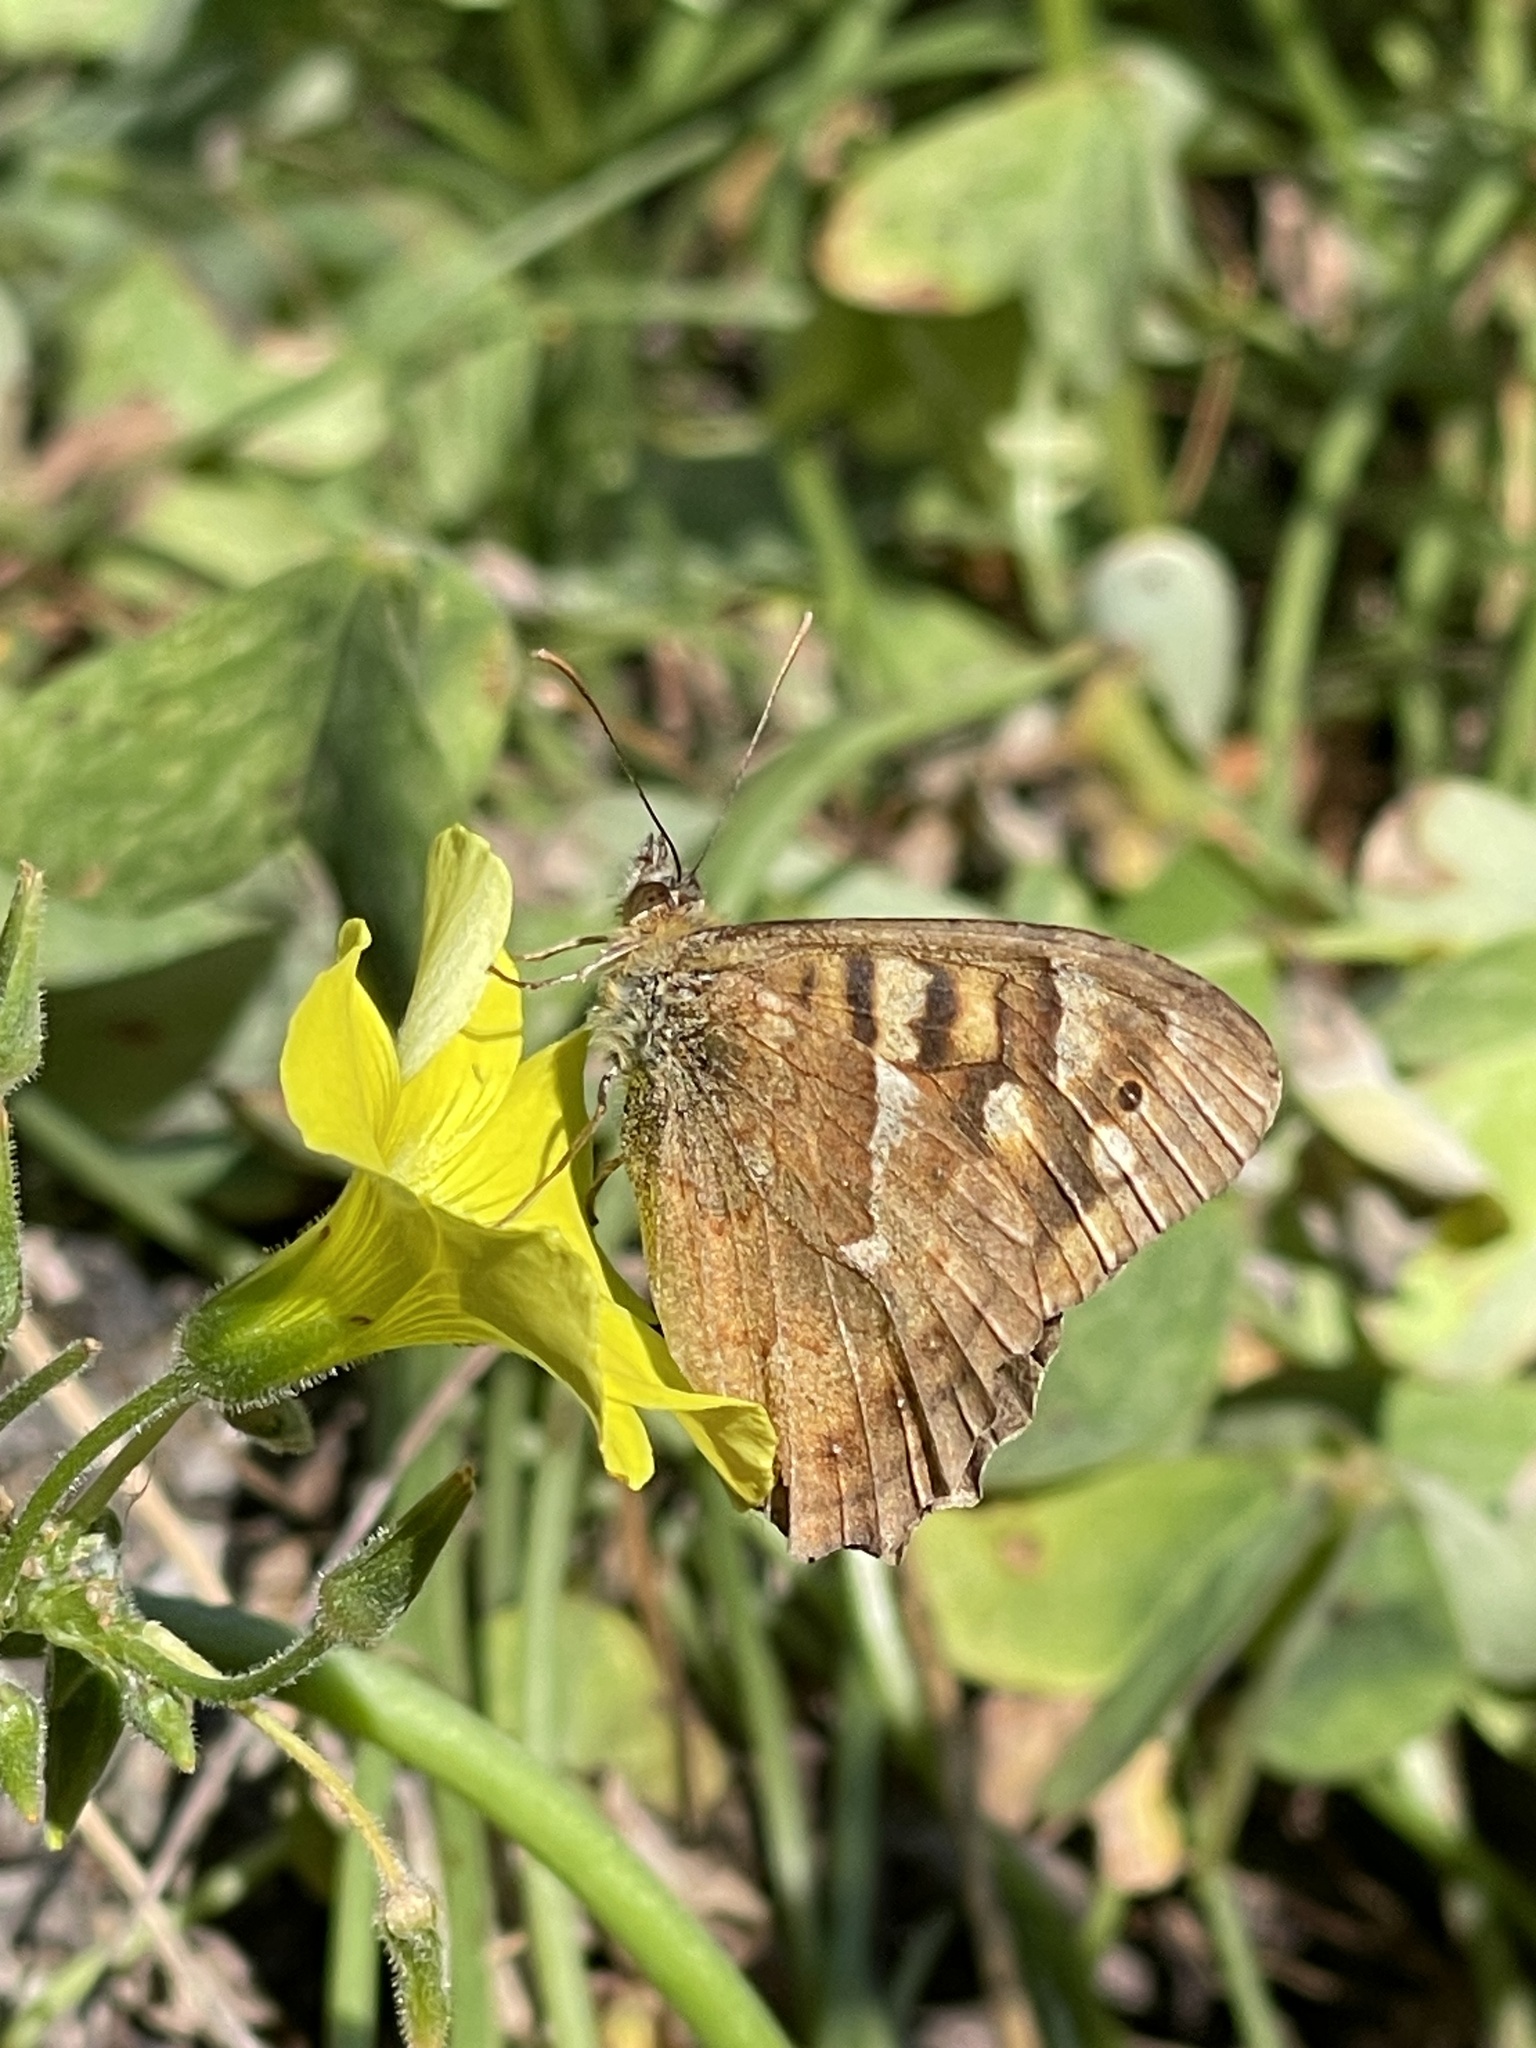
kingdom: Animalia
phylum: Arthropoda
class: Insecta
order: Lepidoptera
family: Nymphalidae
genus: Pararge
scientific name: Pararge aegeria
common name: Speckled wood
